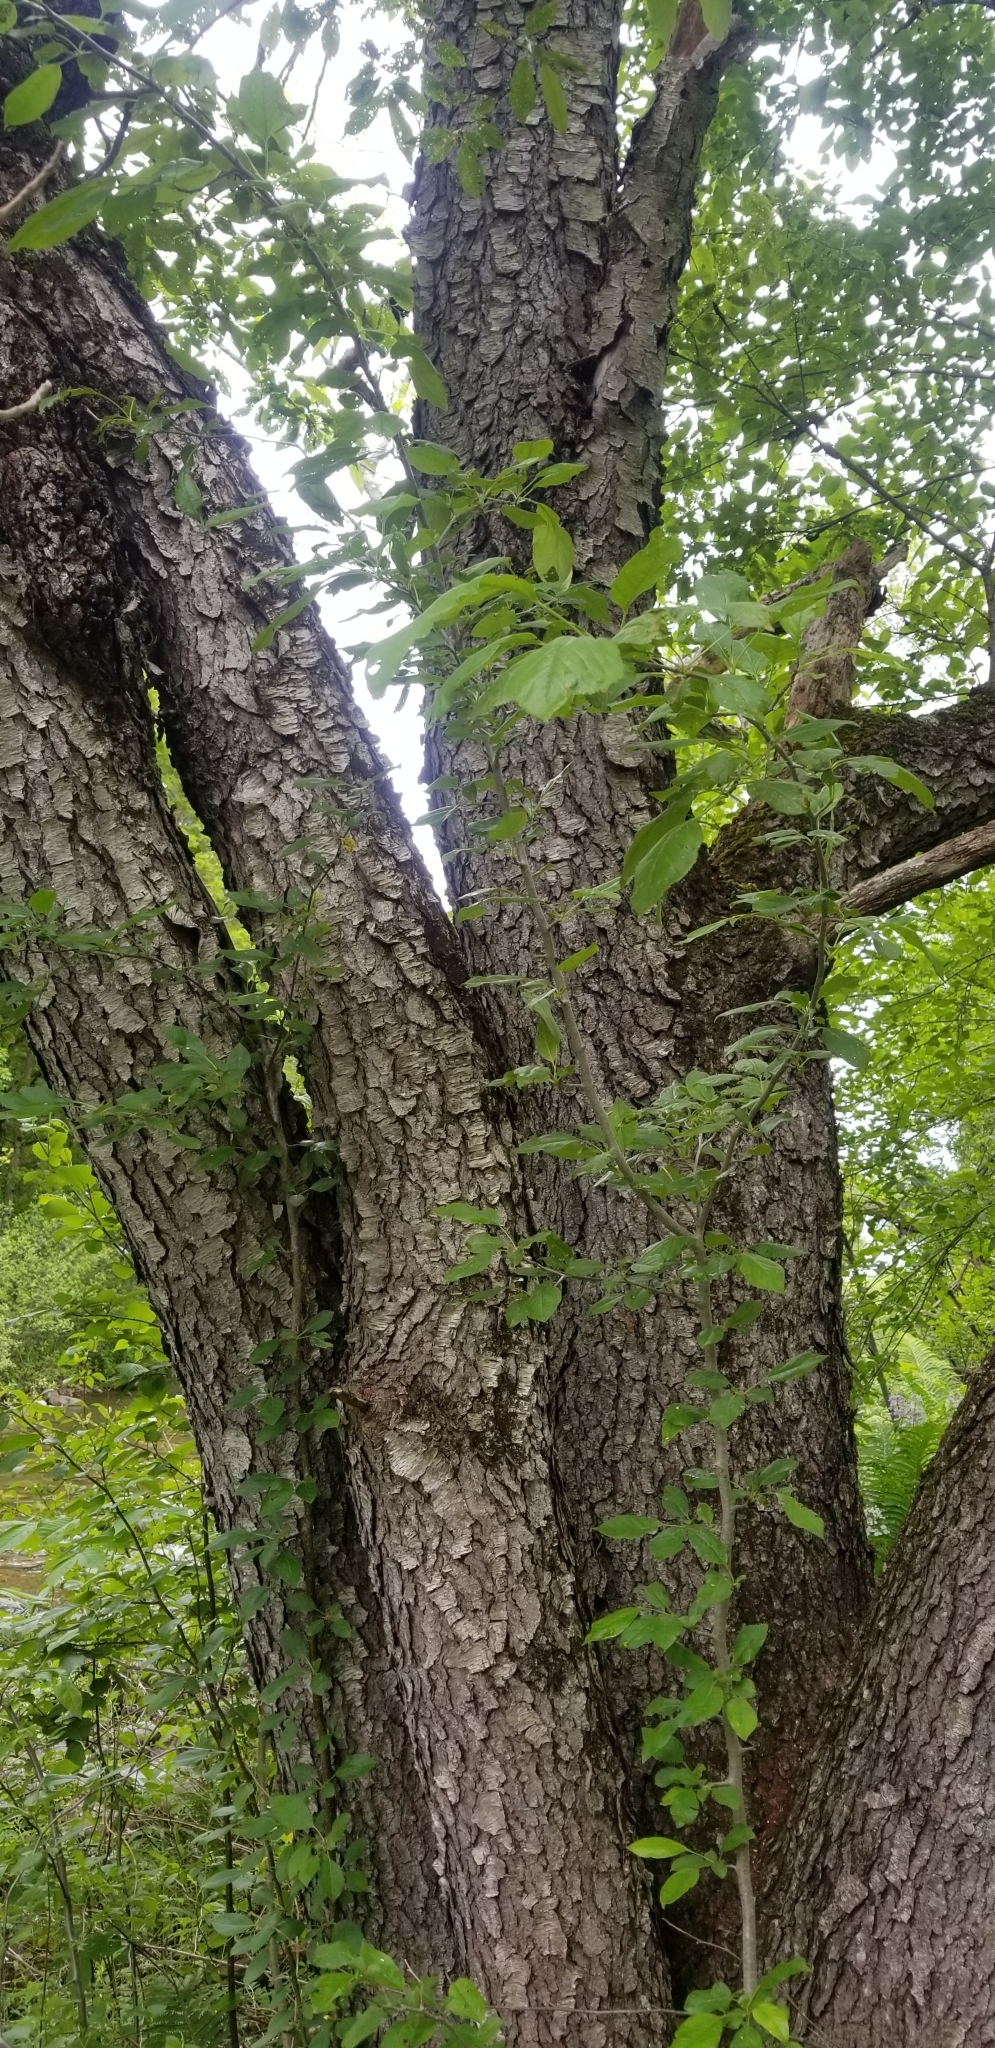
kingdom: Plantae
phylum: Tracheophyta
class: Magnoliopsida
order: Rosales
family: Rosaceae
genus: Prunus
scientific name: Prunus serotina
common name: Black cherry
